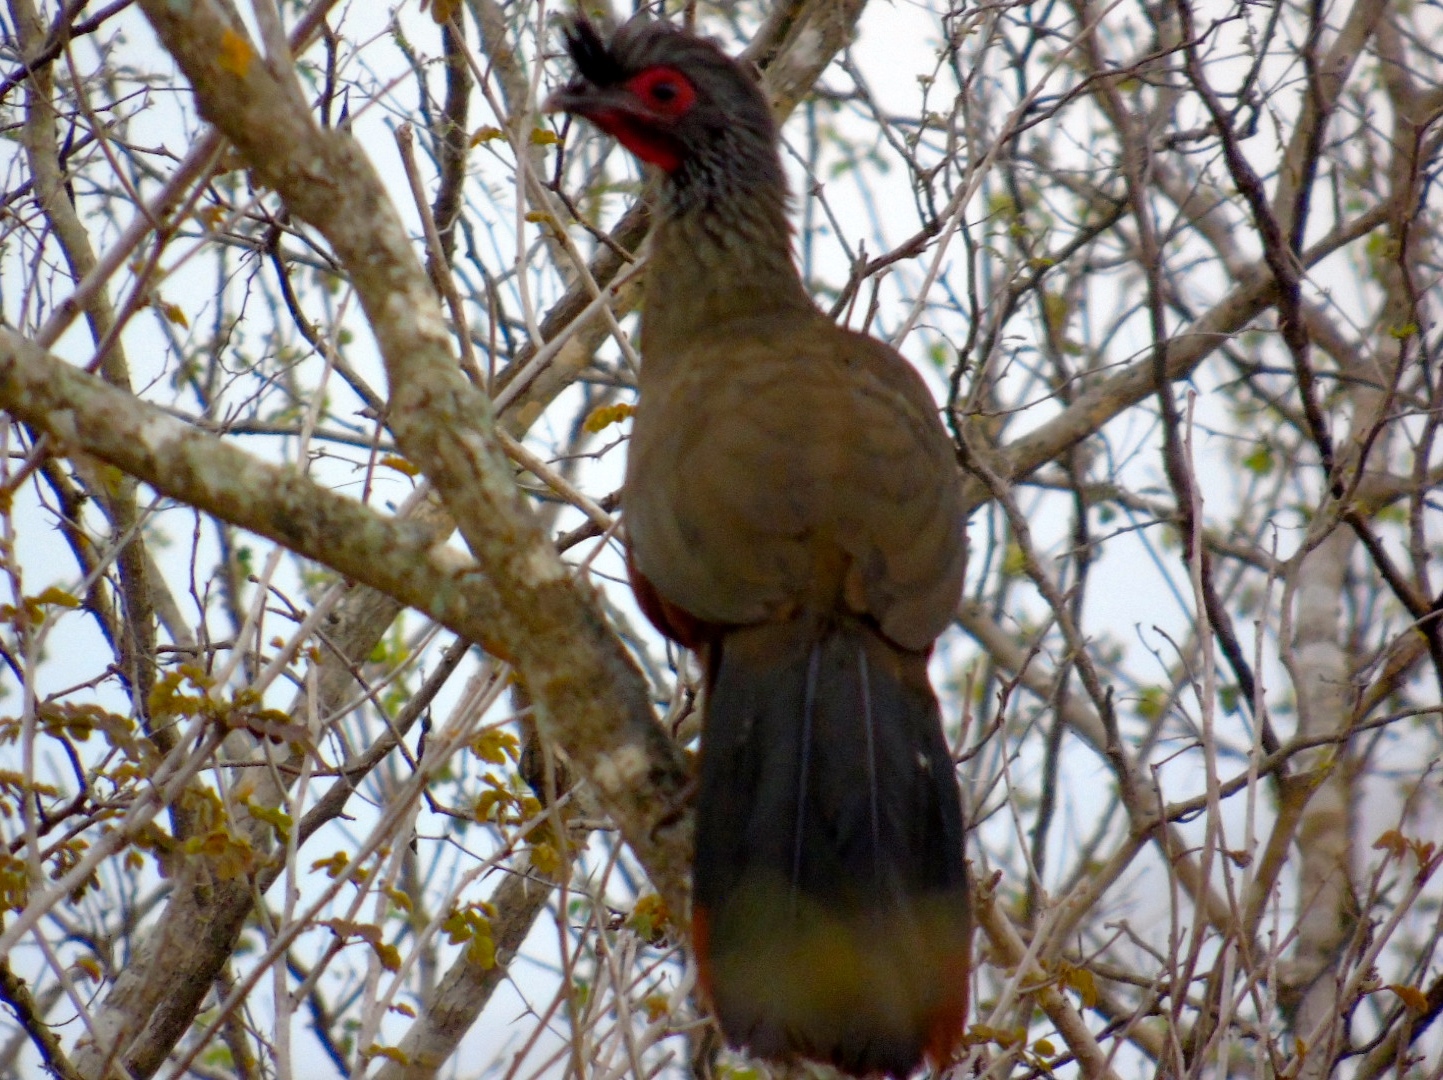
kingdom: Animalia
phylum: Chordata
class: Aves
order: Galliformes
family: Cracidae
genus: Ortalis
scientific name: Ortalis wagleri
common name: Rufous-bellied chachalaca
